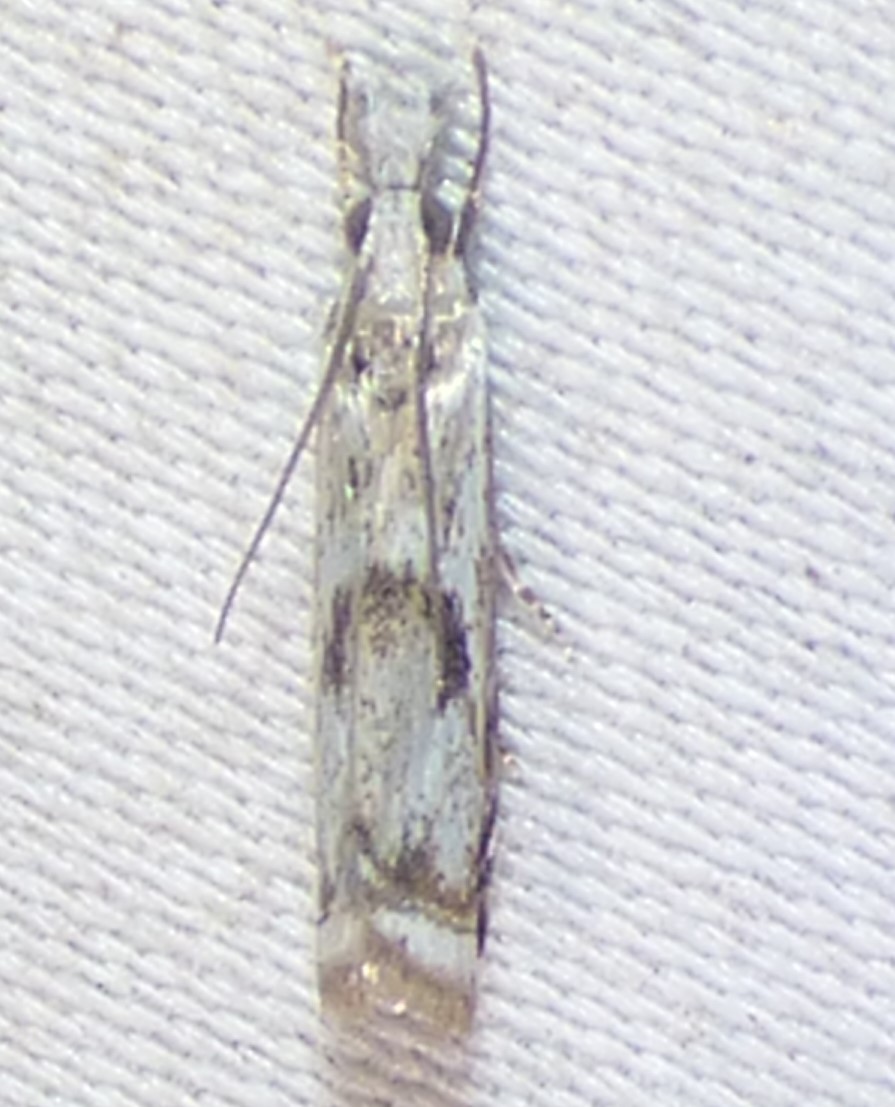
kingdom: Animalia
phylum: Arthropoda
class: Insecta
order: Lepidoptera
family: Crambidae
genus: Microcrambus
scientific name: Microcrambus immunellus
